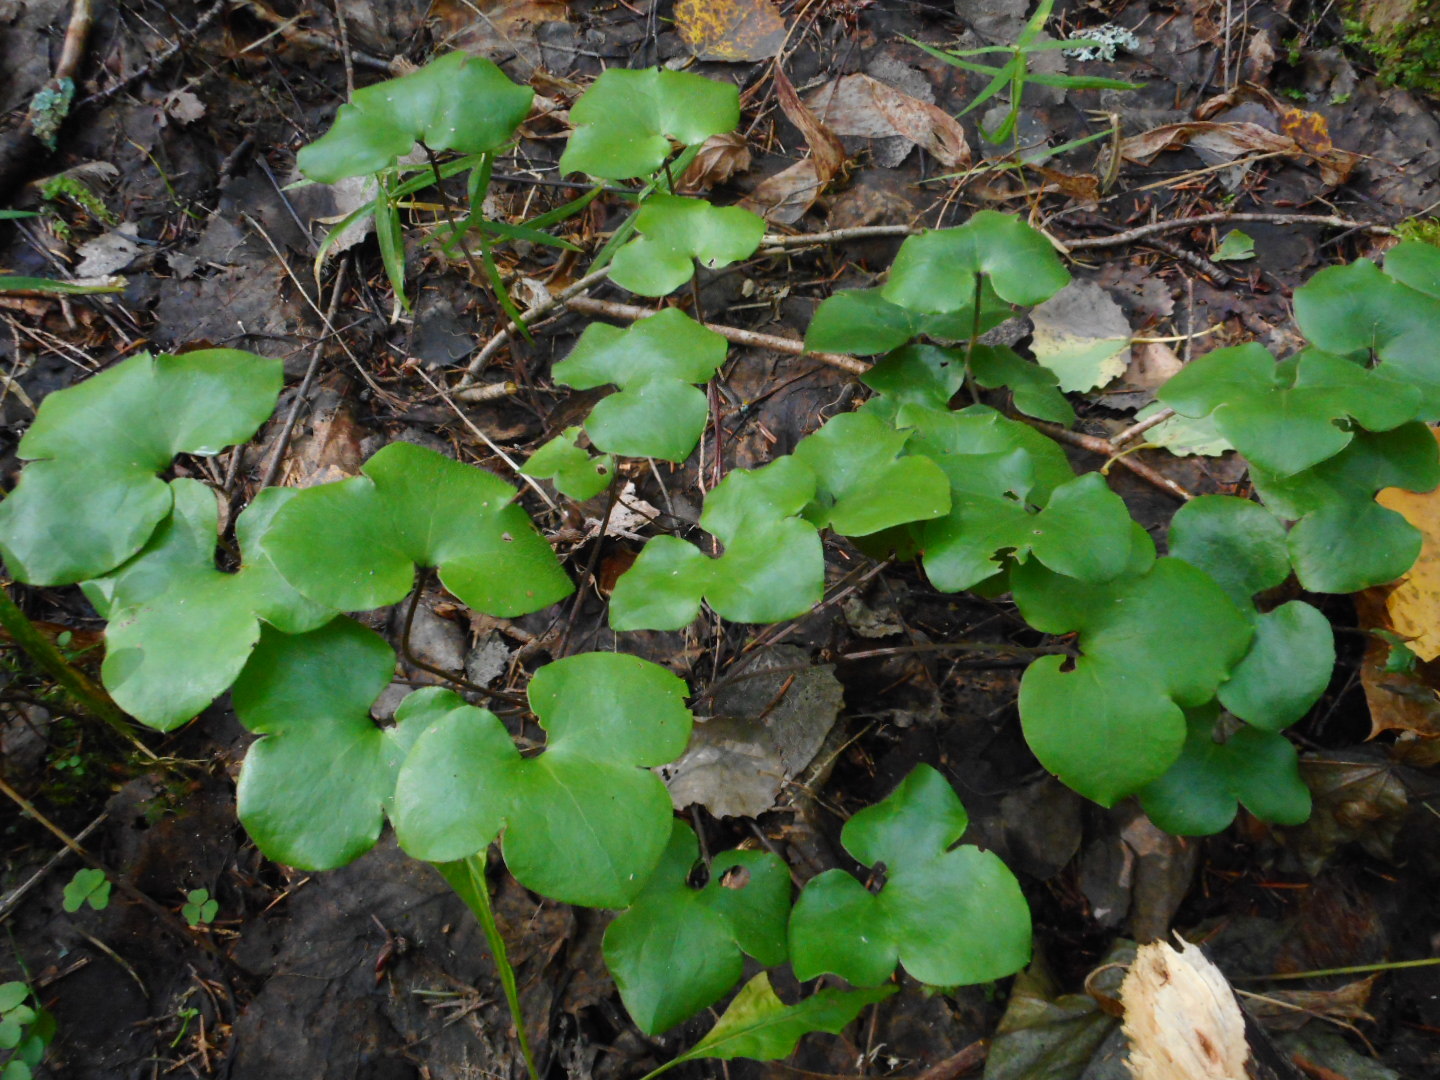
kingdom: Plantae
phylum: Tracheophyta
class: Magnoliopsida
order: Ranunculales
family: Ranunculaceae
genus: Hepatica
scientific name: Hepatica nobilis
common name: Liverleaf
